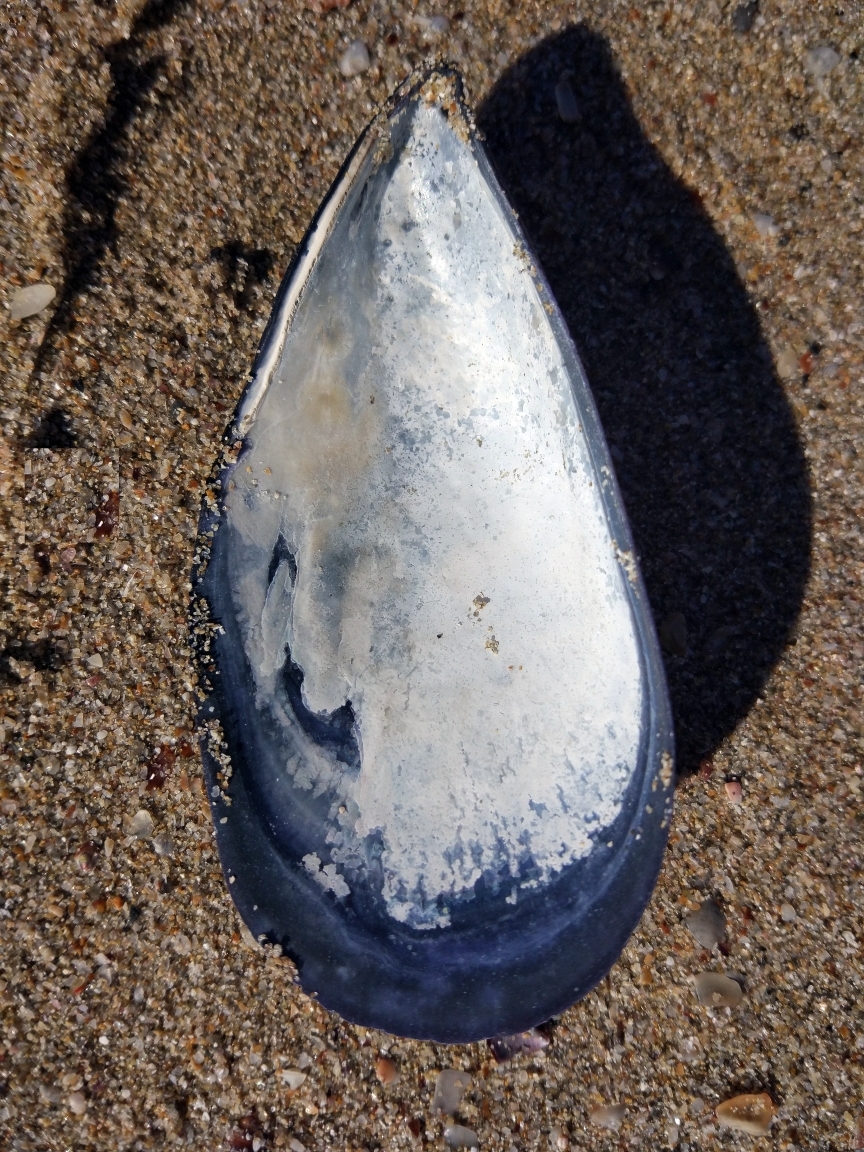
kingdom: Animalia
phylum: Mollusca
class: Bivalvia
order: Mytilida
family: Mytilidae
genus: Mytilus
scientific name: Mytilus galloprovincialis
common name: Mediterranean mussel
